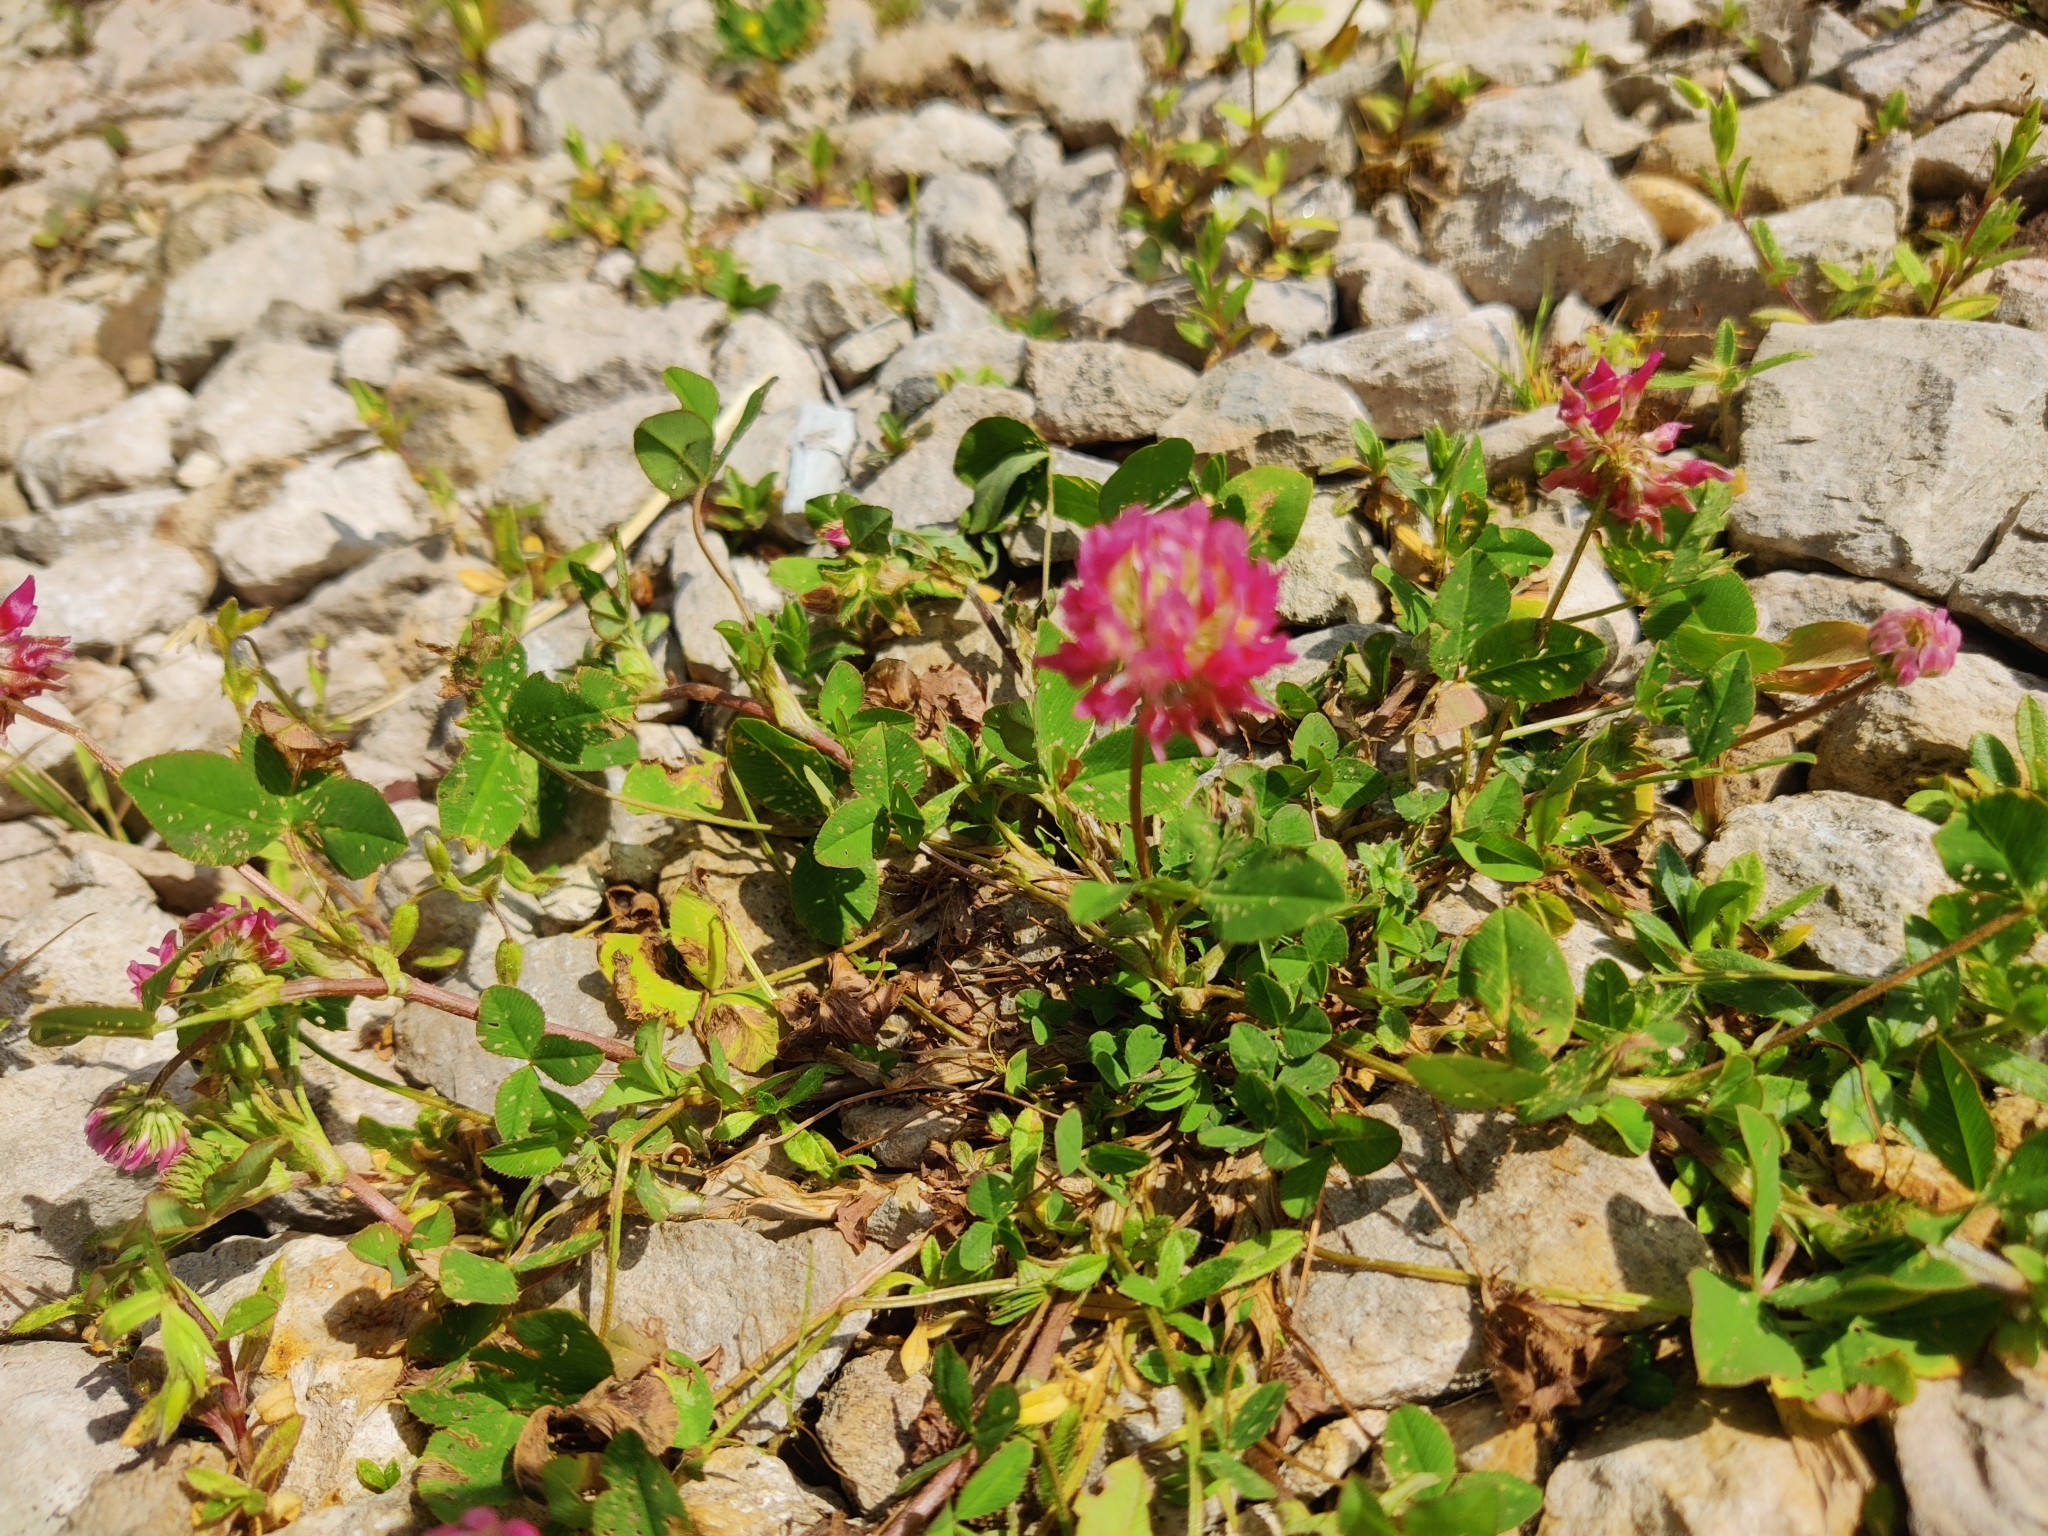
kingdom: Plantae
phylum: Tracheophyta
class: Magnoliopsida
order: Fabales
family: Fabaceae
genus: Trifolium
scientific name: Trifolium hybridum
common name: Alsike clover
